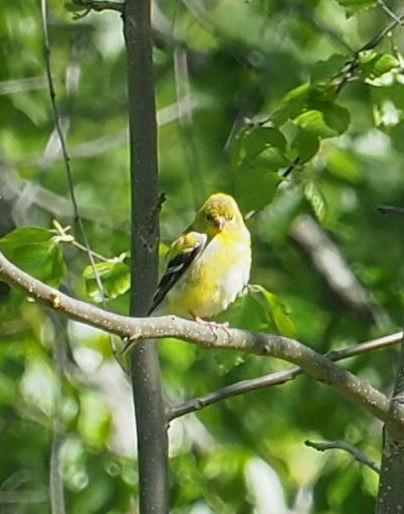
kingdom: Animalia
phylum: Chordata
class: Aves
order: Passeriformes
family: Fringillidae
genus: Spinus
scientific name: Spinus tristis
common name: American goldfinch
